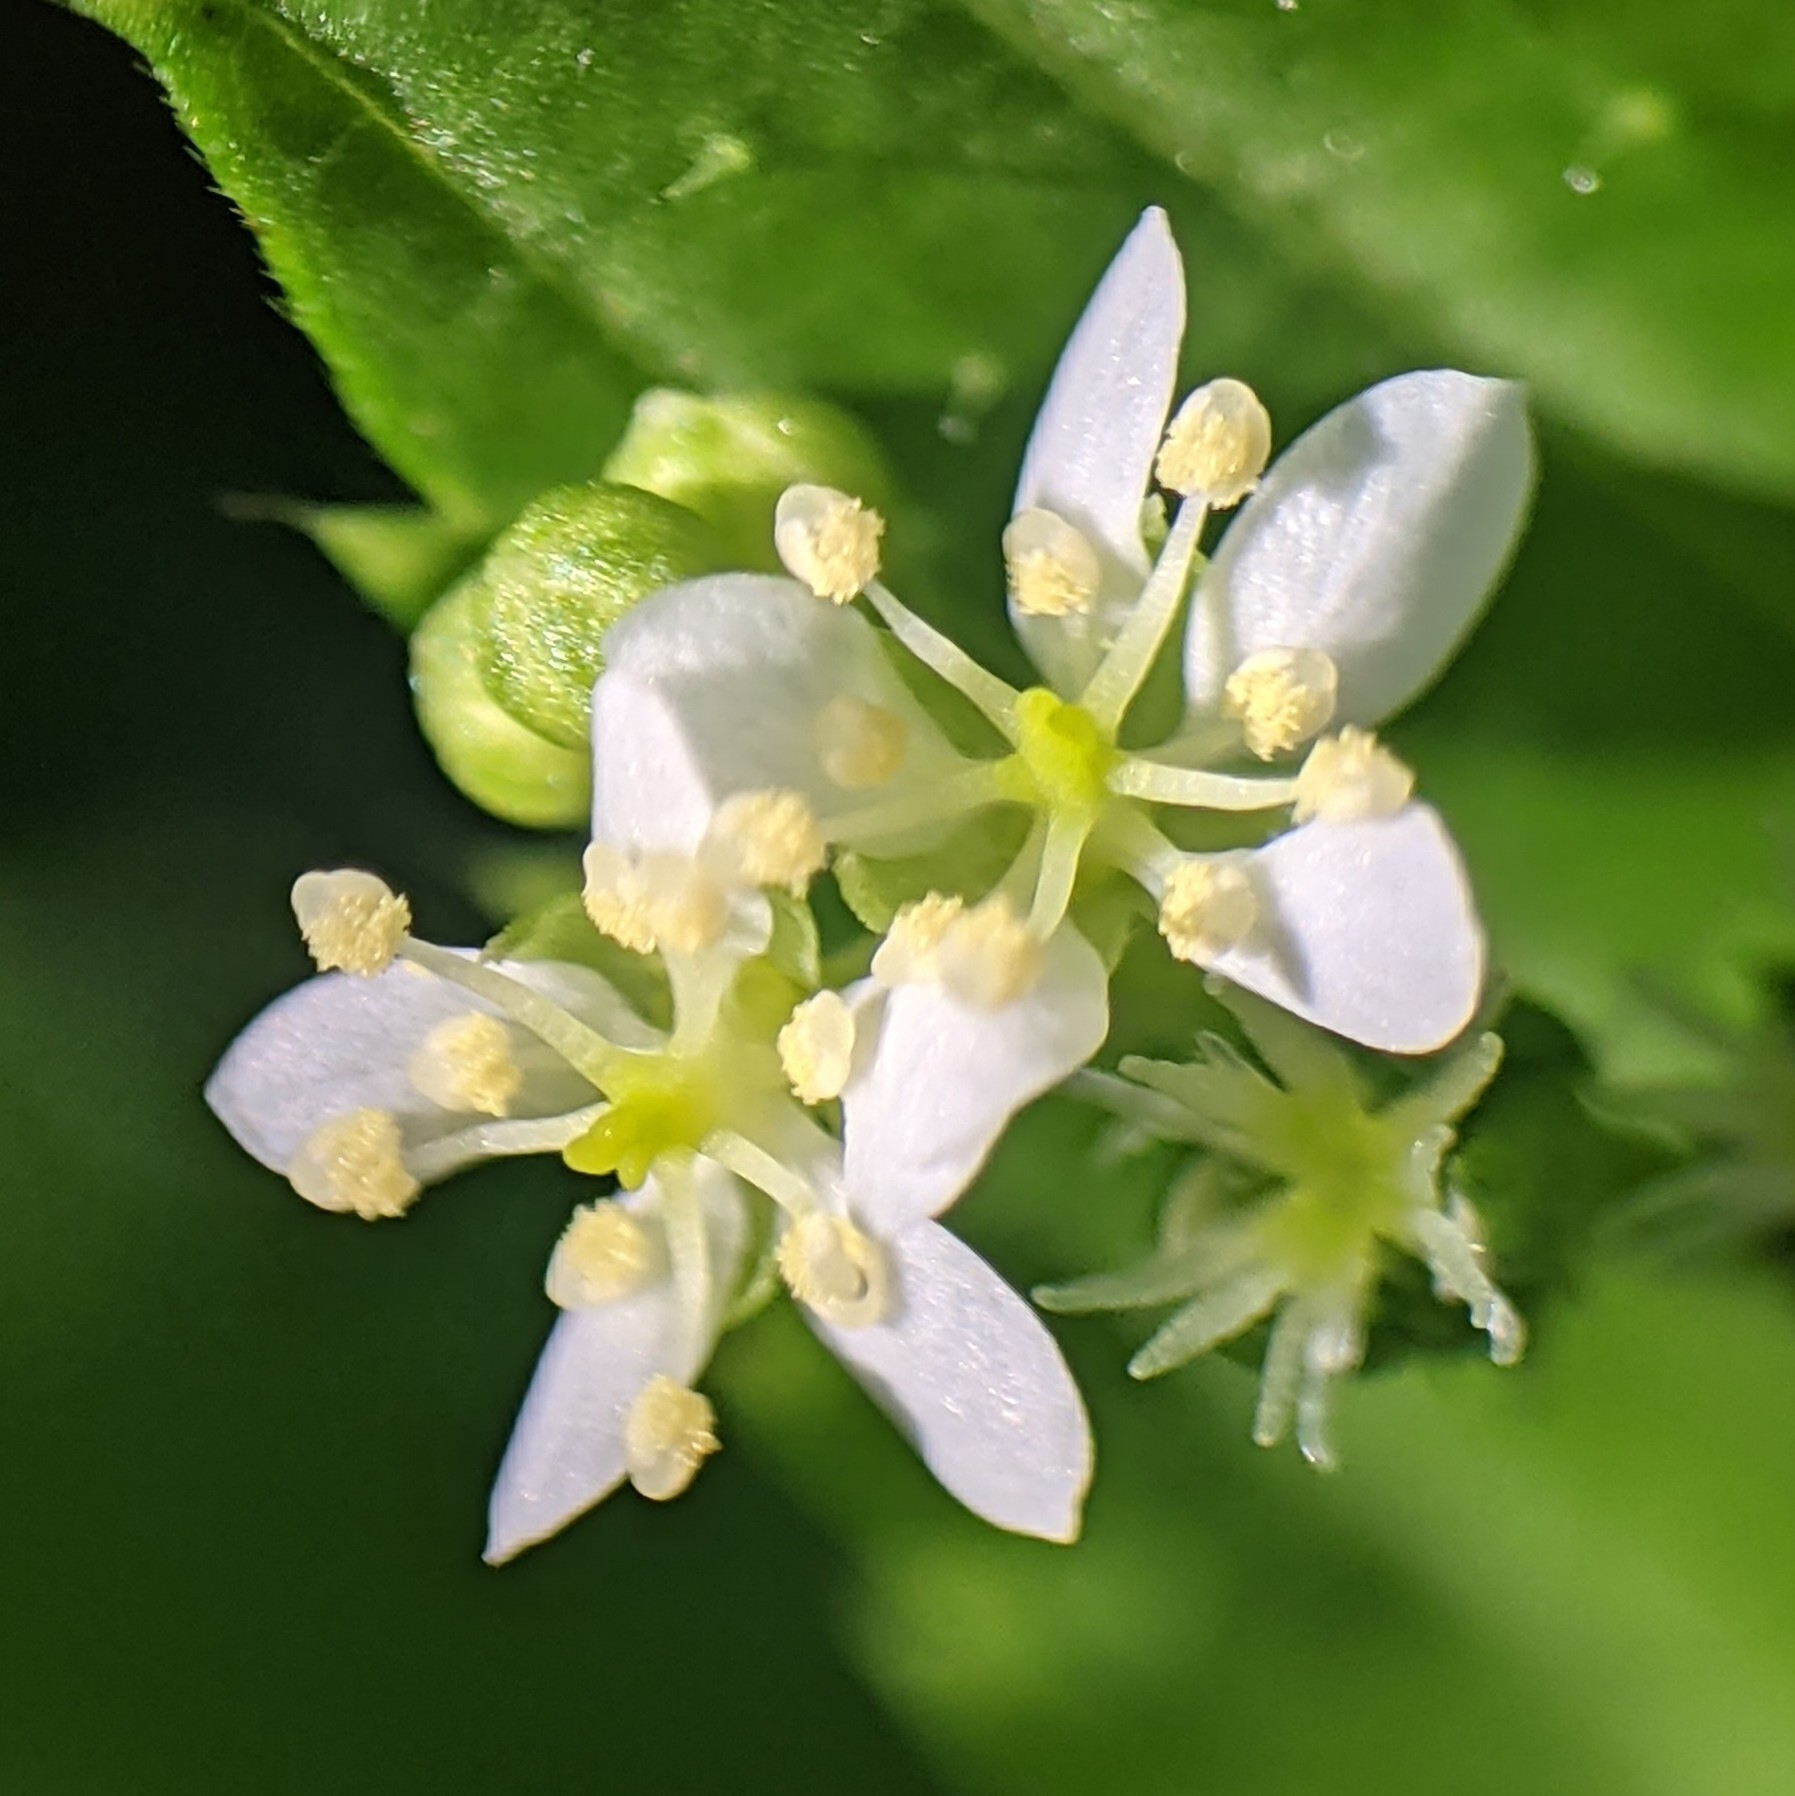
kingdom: Plantae
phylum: Tracheophyta
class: Magnoliopsida
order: Malpighiales
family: Euphorbiaceae
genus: Caperonia
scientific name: Caperonia palustris
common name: Sacatrapo
